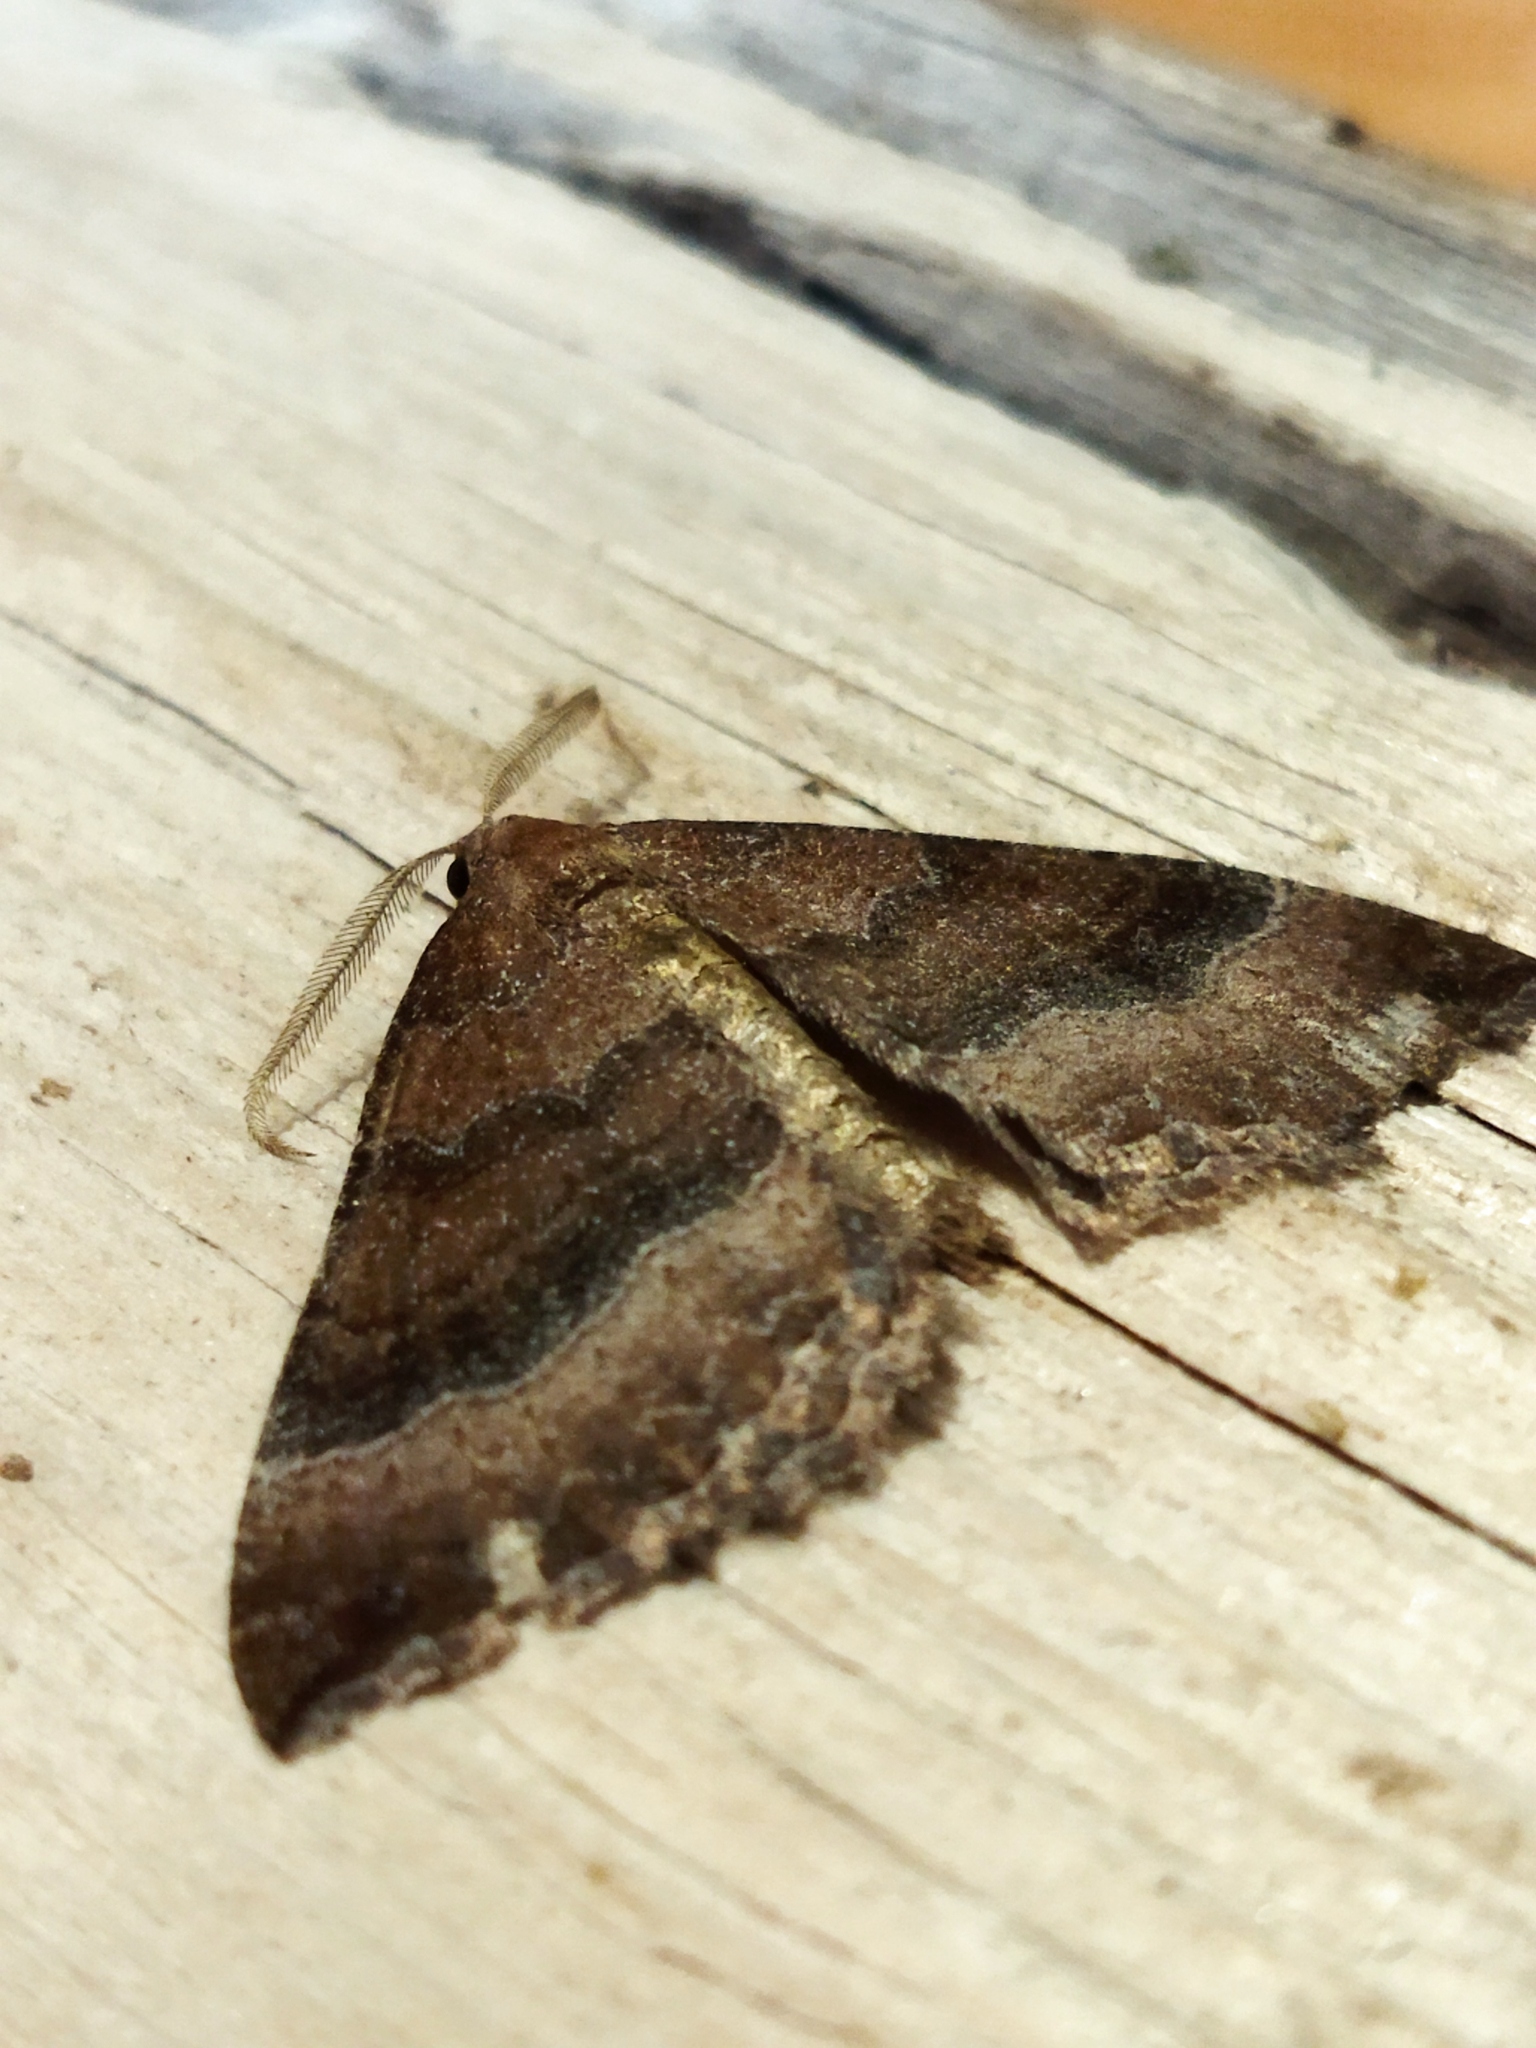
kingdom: Animalia
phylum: Arthropoda
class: Insecta
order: Lepidoptera
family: Geometridae
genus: Larentia
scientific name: Larentia clavaria
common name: Mallow
